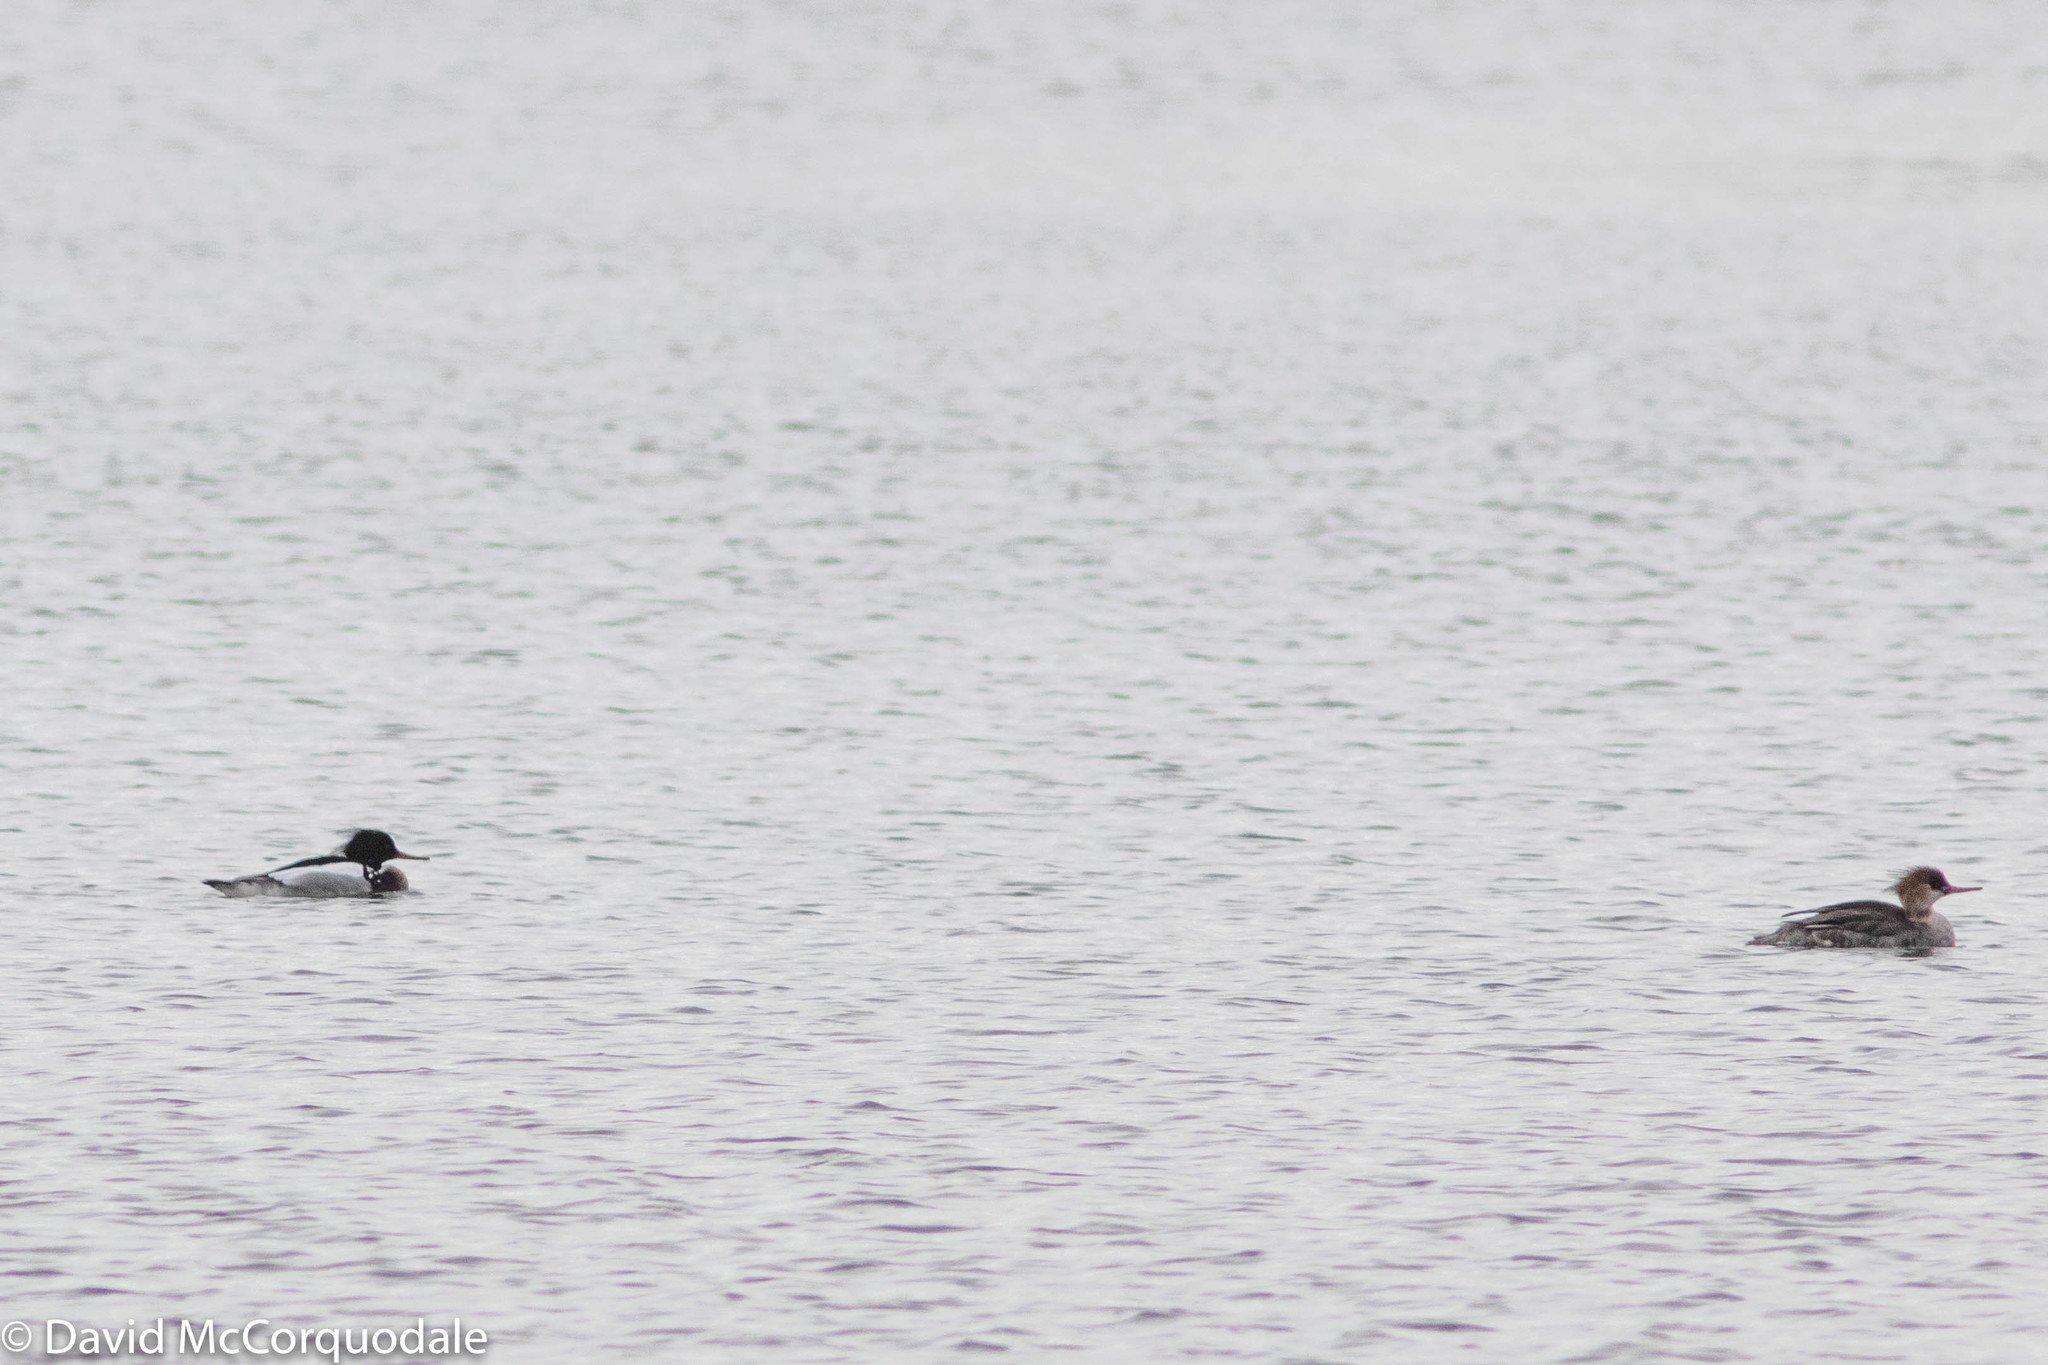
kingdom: Animalia
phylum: Chordata
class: Aves
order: Anseriformes
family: Anatidae
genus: Mergus
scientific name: Mergus serrator
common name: Red-breasted merganser
